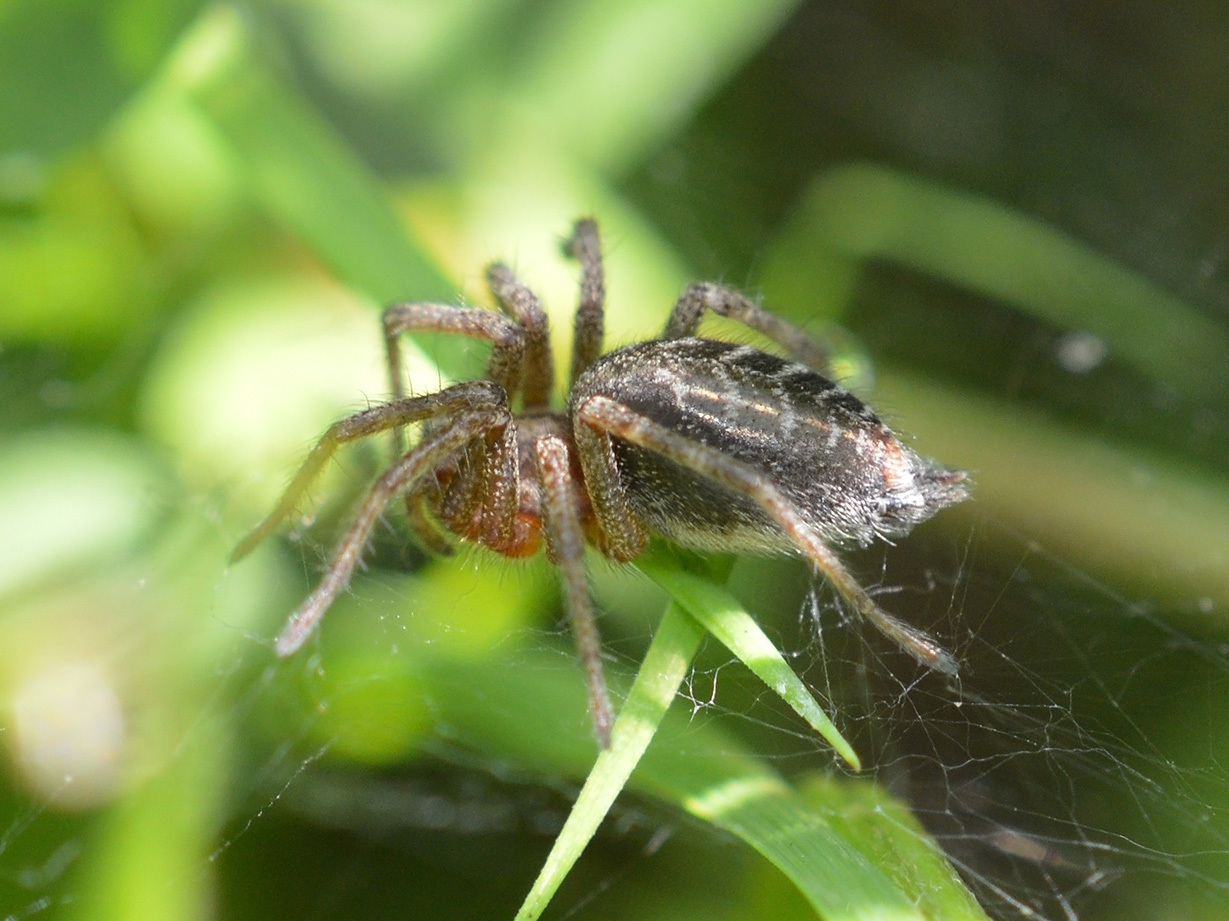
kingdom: Animalia
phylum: Arthropoda
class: Arachnida
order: Araneae
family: Agelenidae
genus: Agelena
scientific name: Agelena labyrinthica
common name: Labyrinth spider
